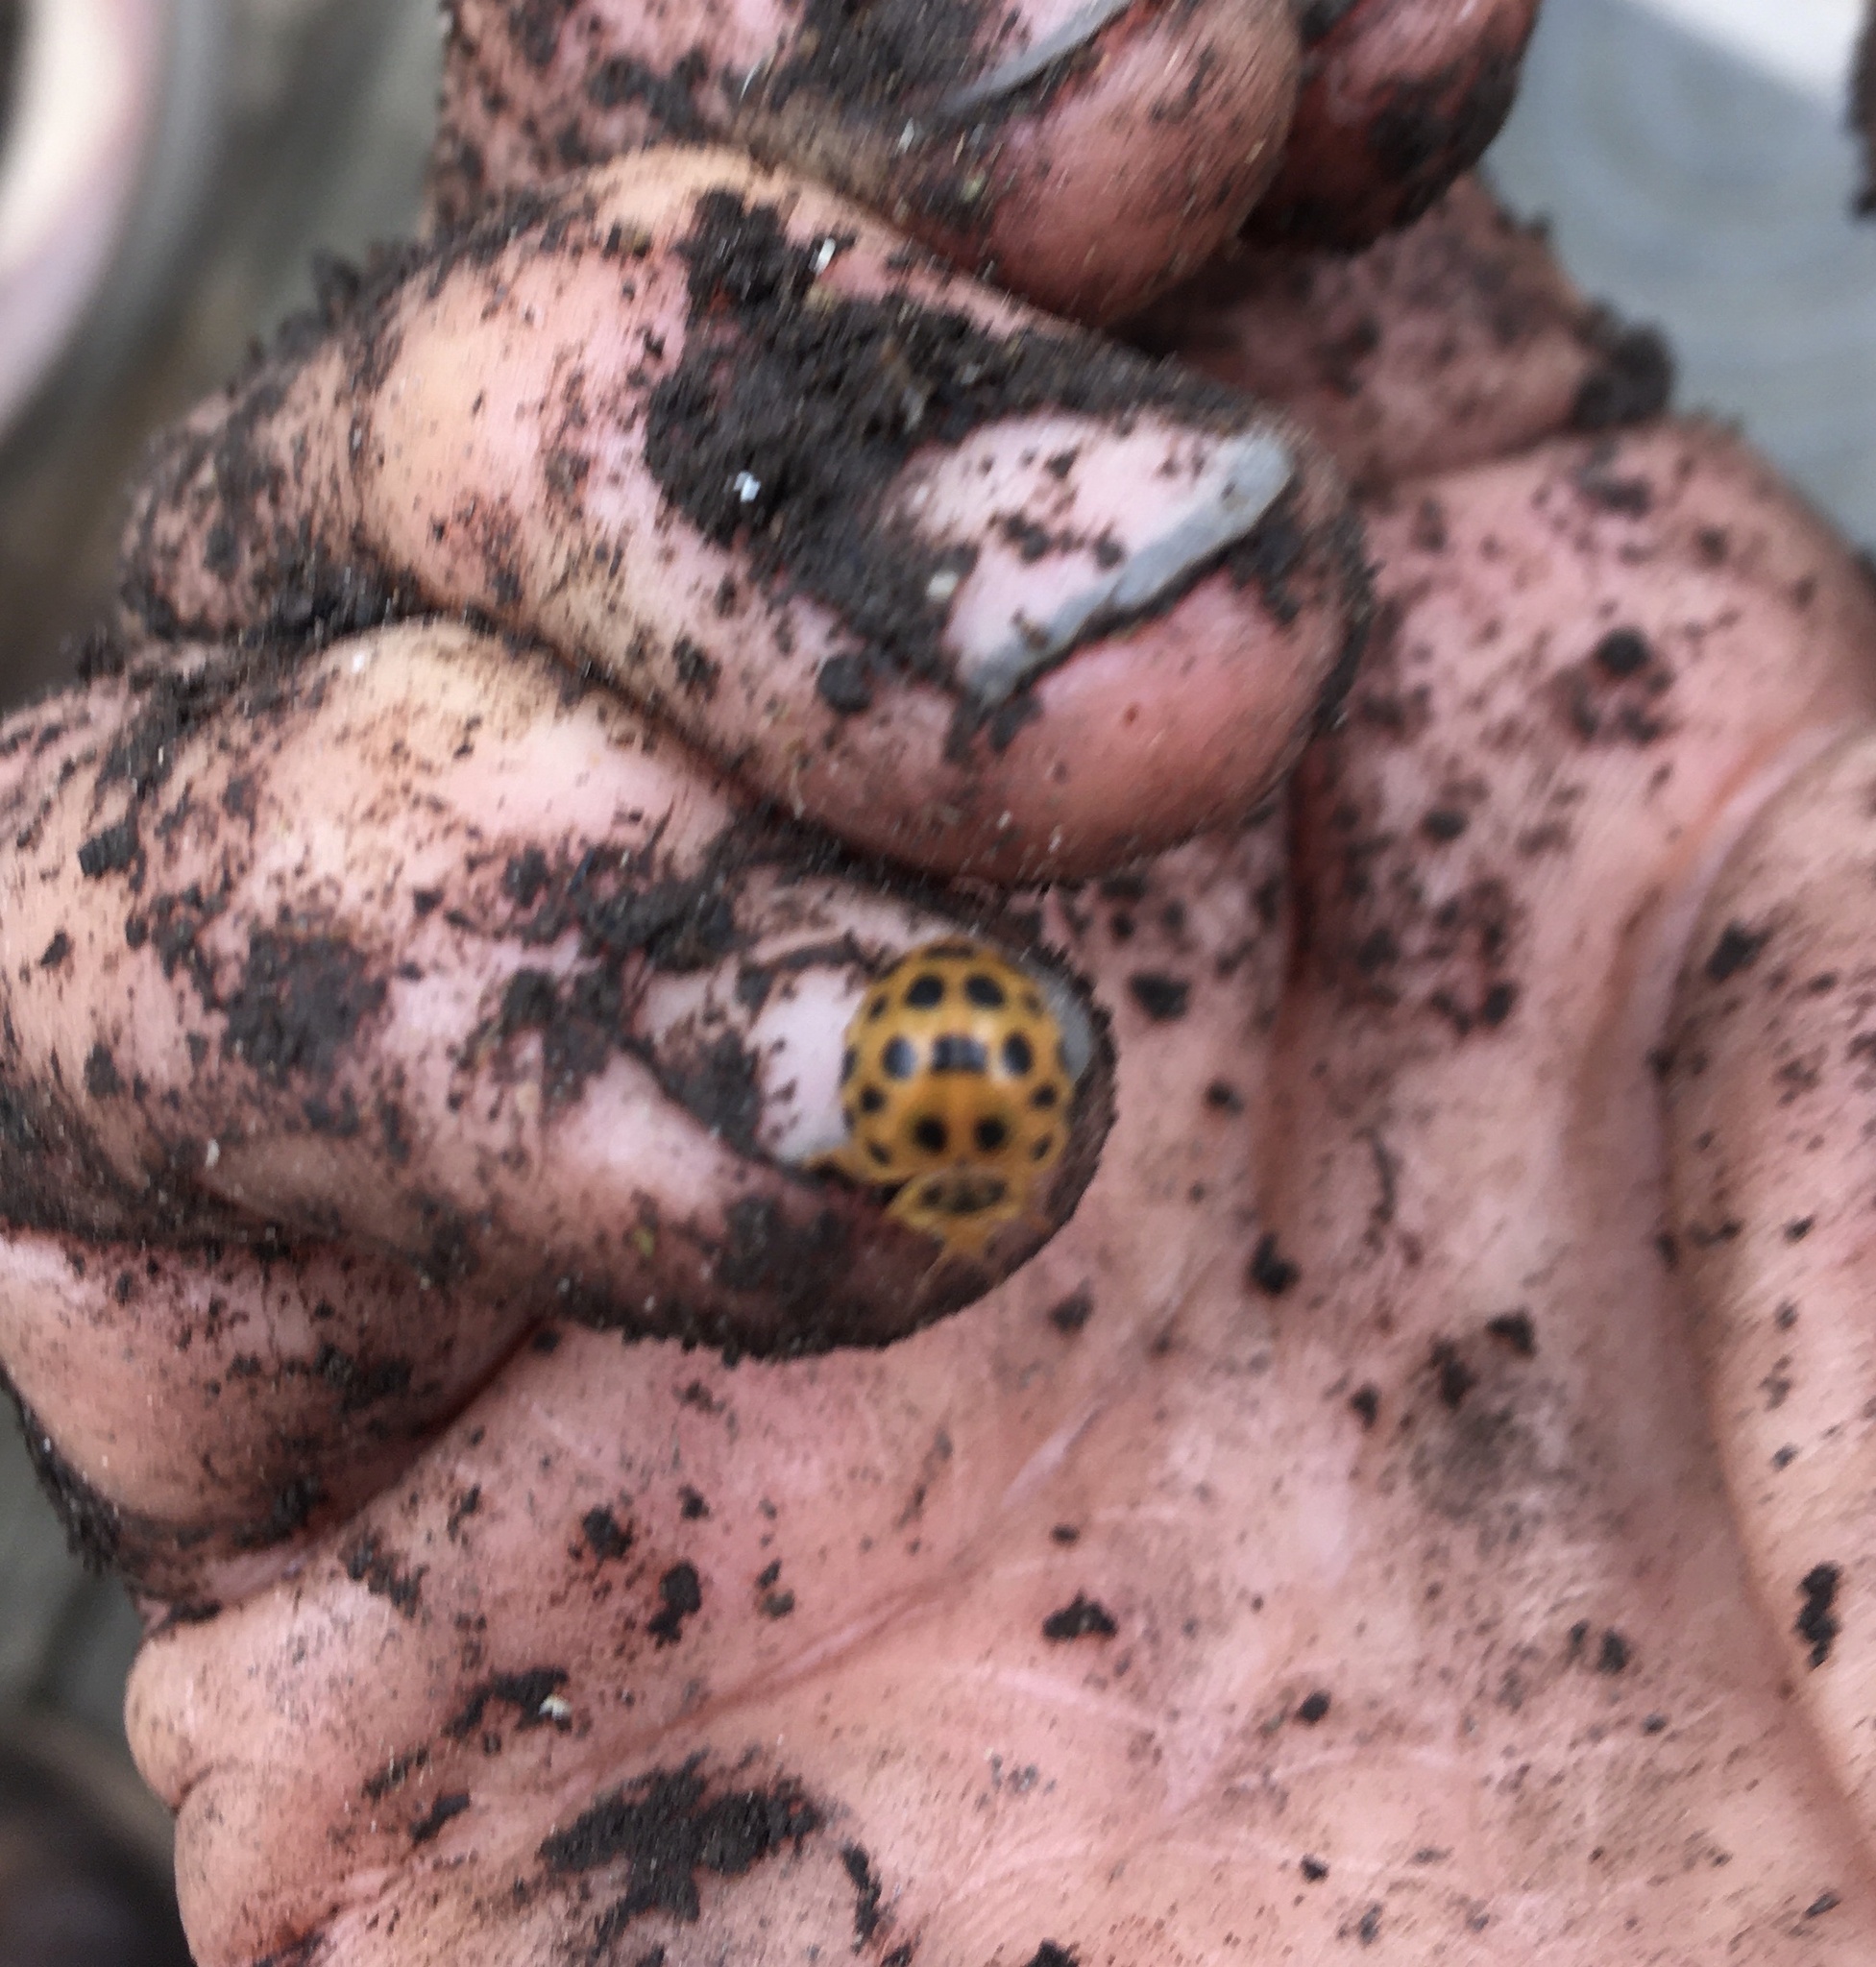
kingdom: Animalia
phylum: Arthropoda
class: Insecta
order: Coleoptera
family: Coccinellidae
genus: Henosepilachna
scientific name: Henosepilachna vigintioctopunctata
